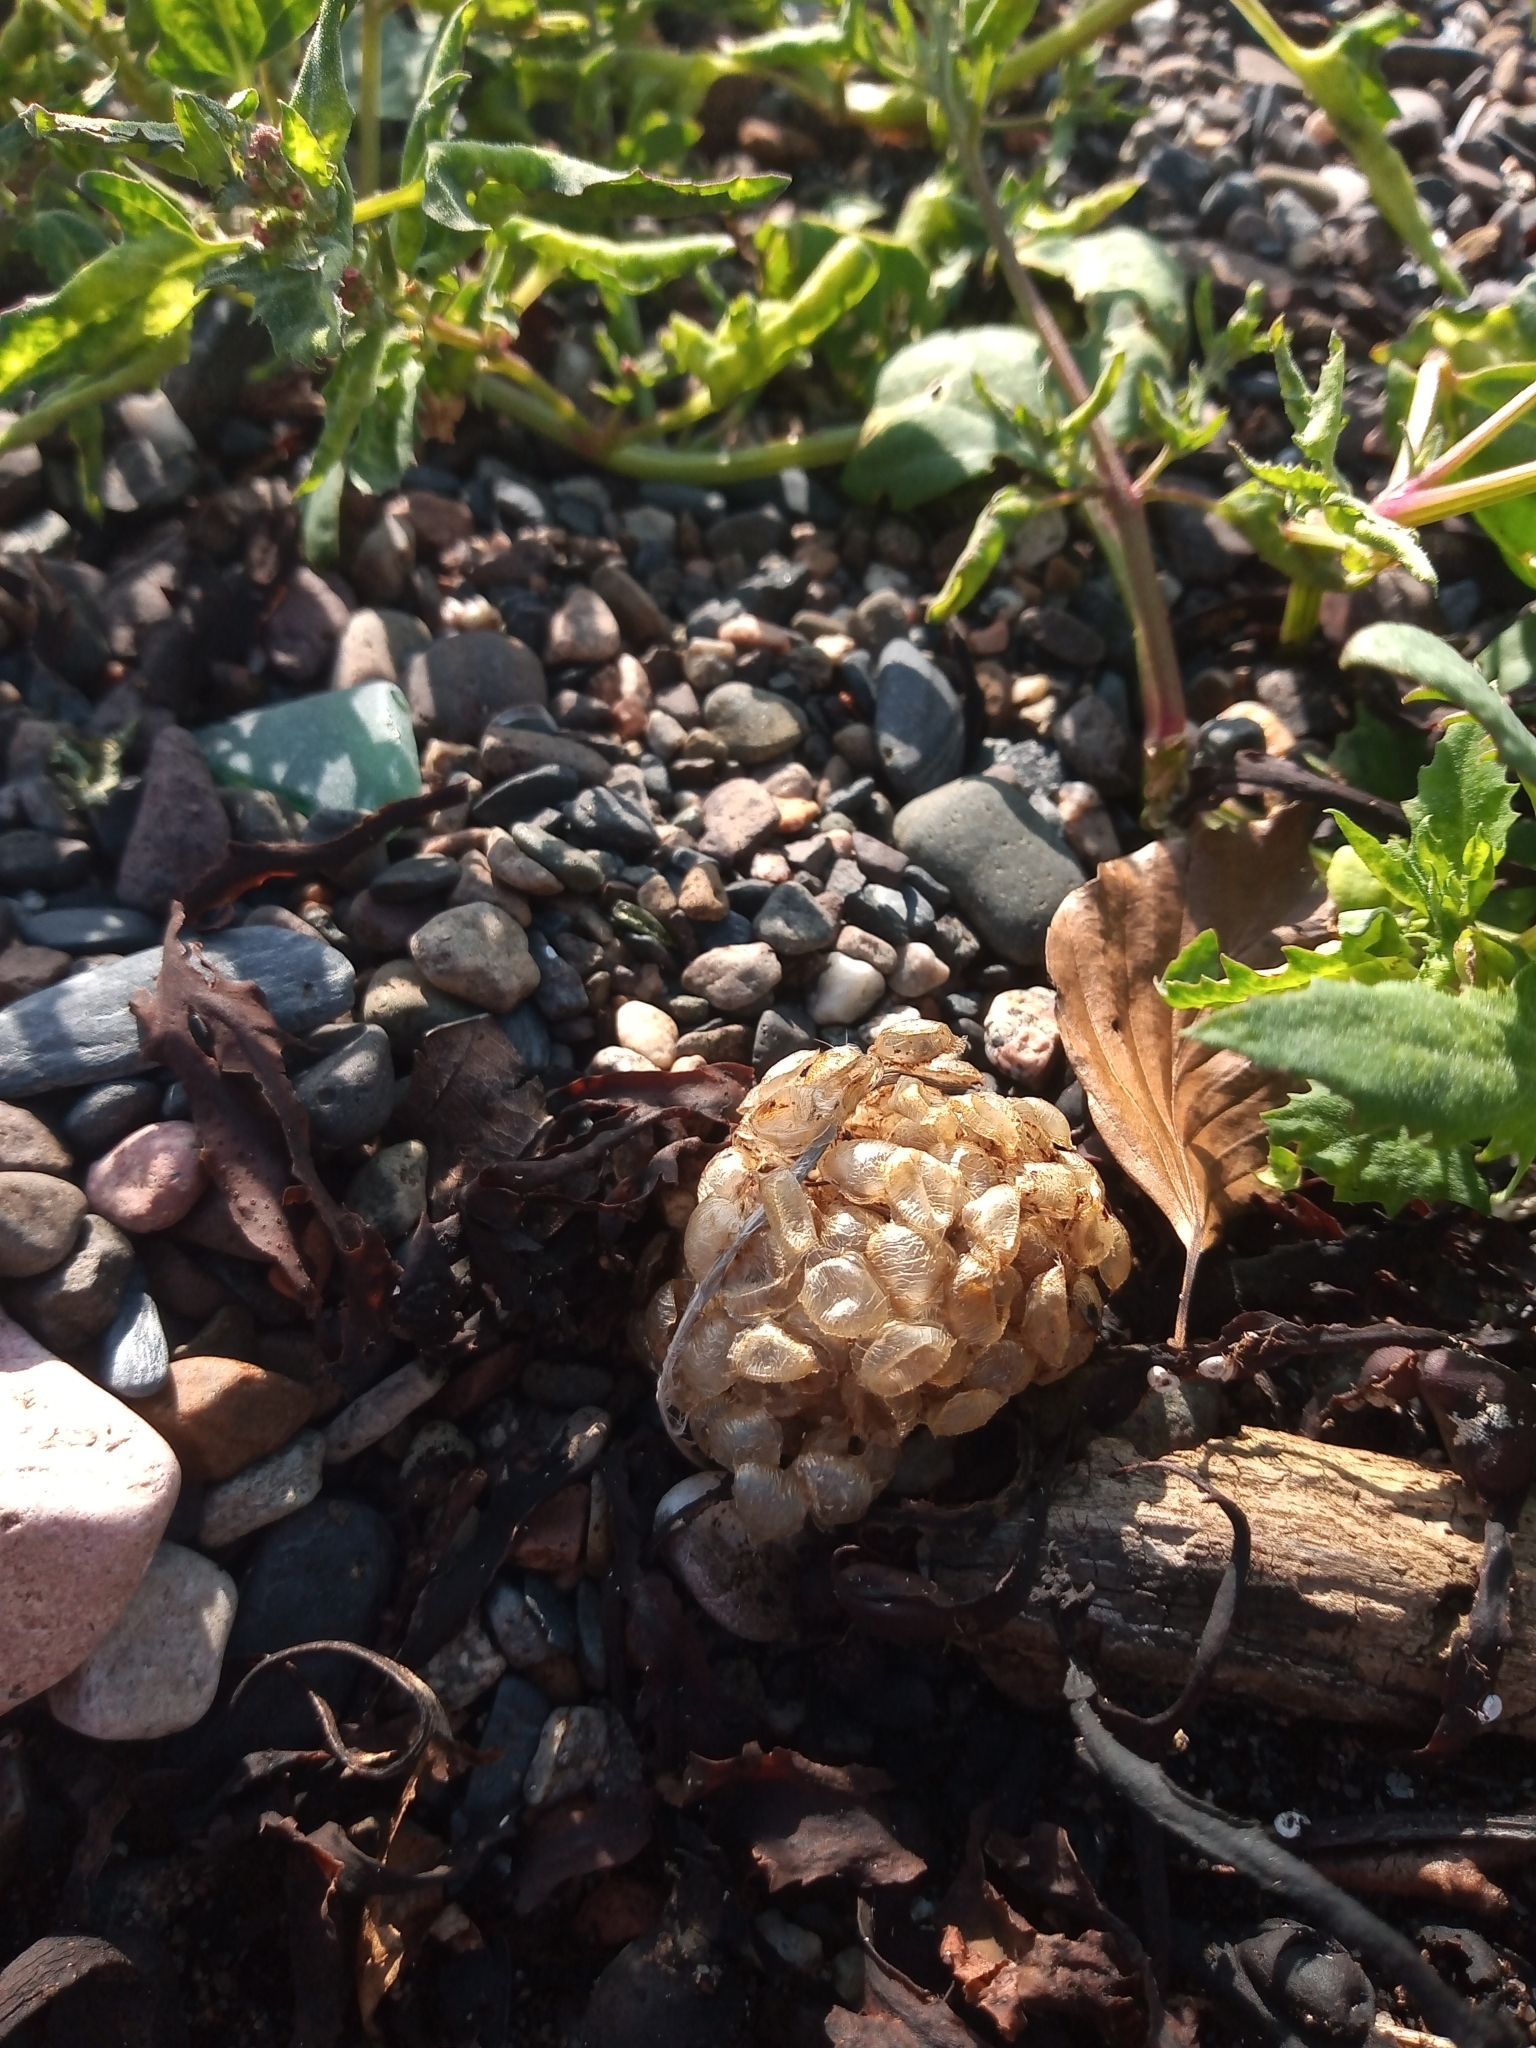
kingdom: Animalia
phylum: Mollusca
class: Gastropoda
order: Neogastropoda
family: Buccinidae
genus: Buccinum
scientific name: Buccinum undatum
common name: Common whelk
